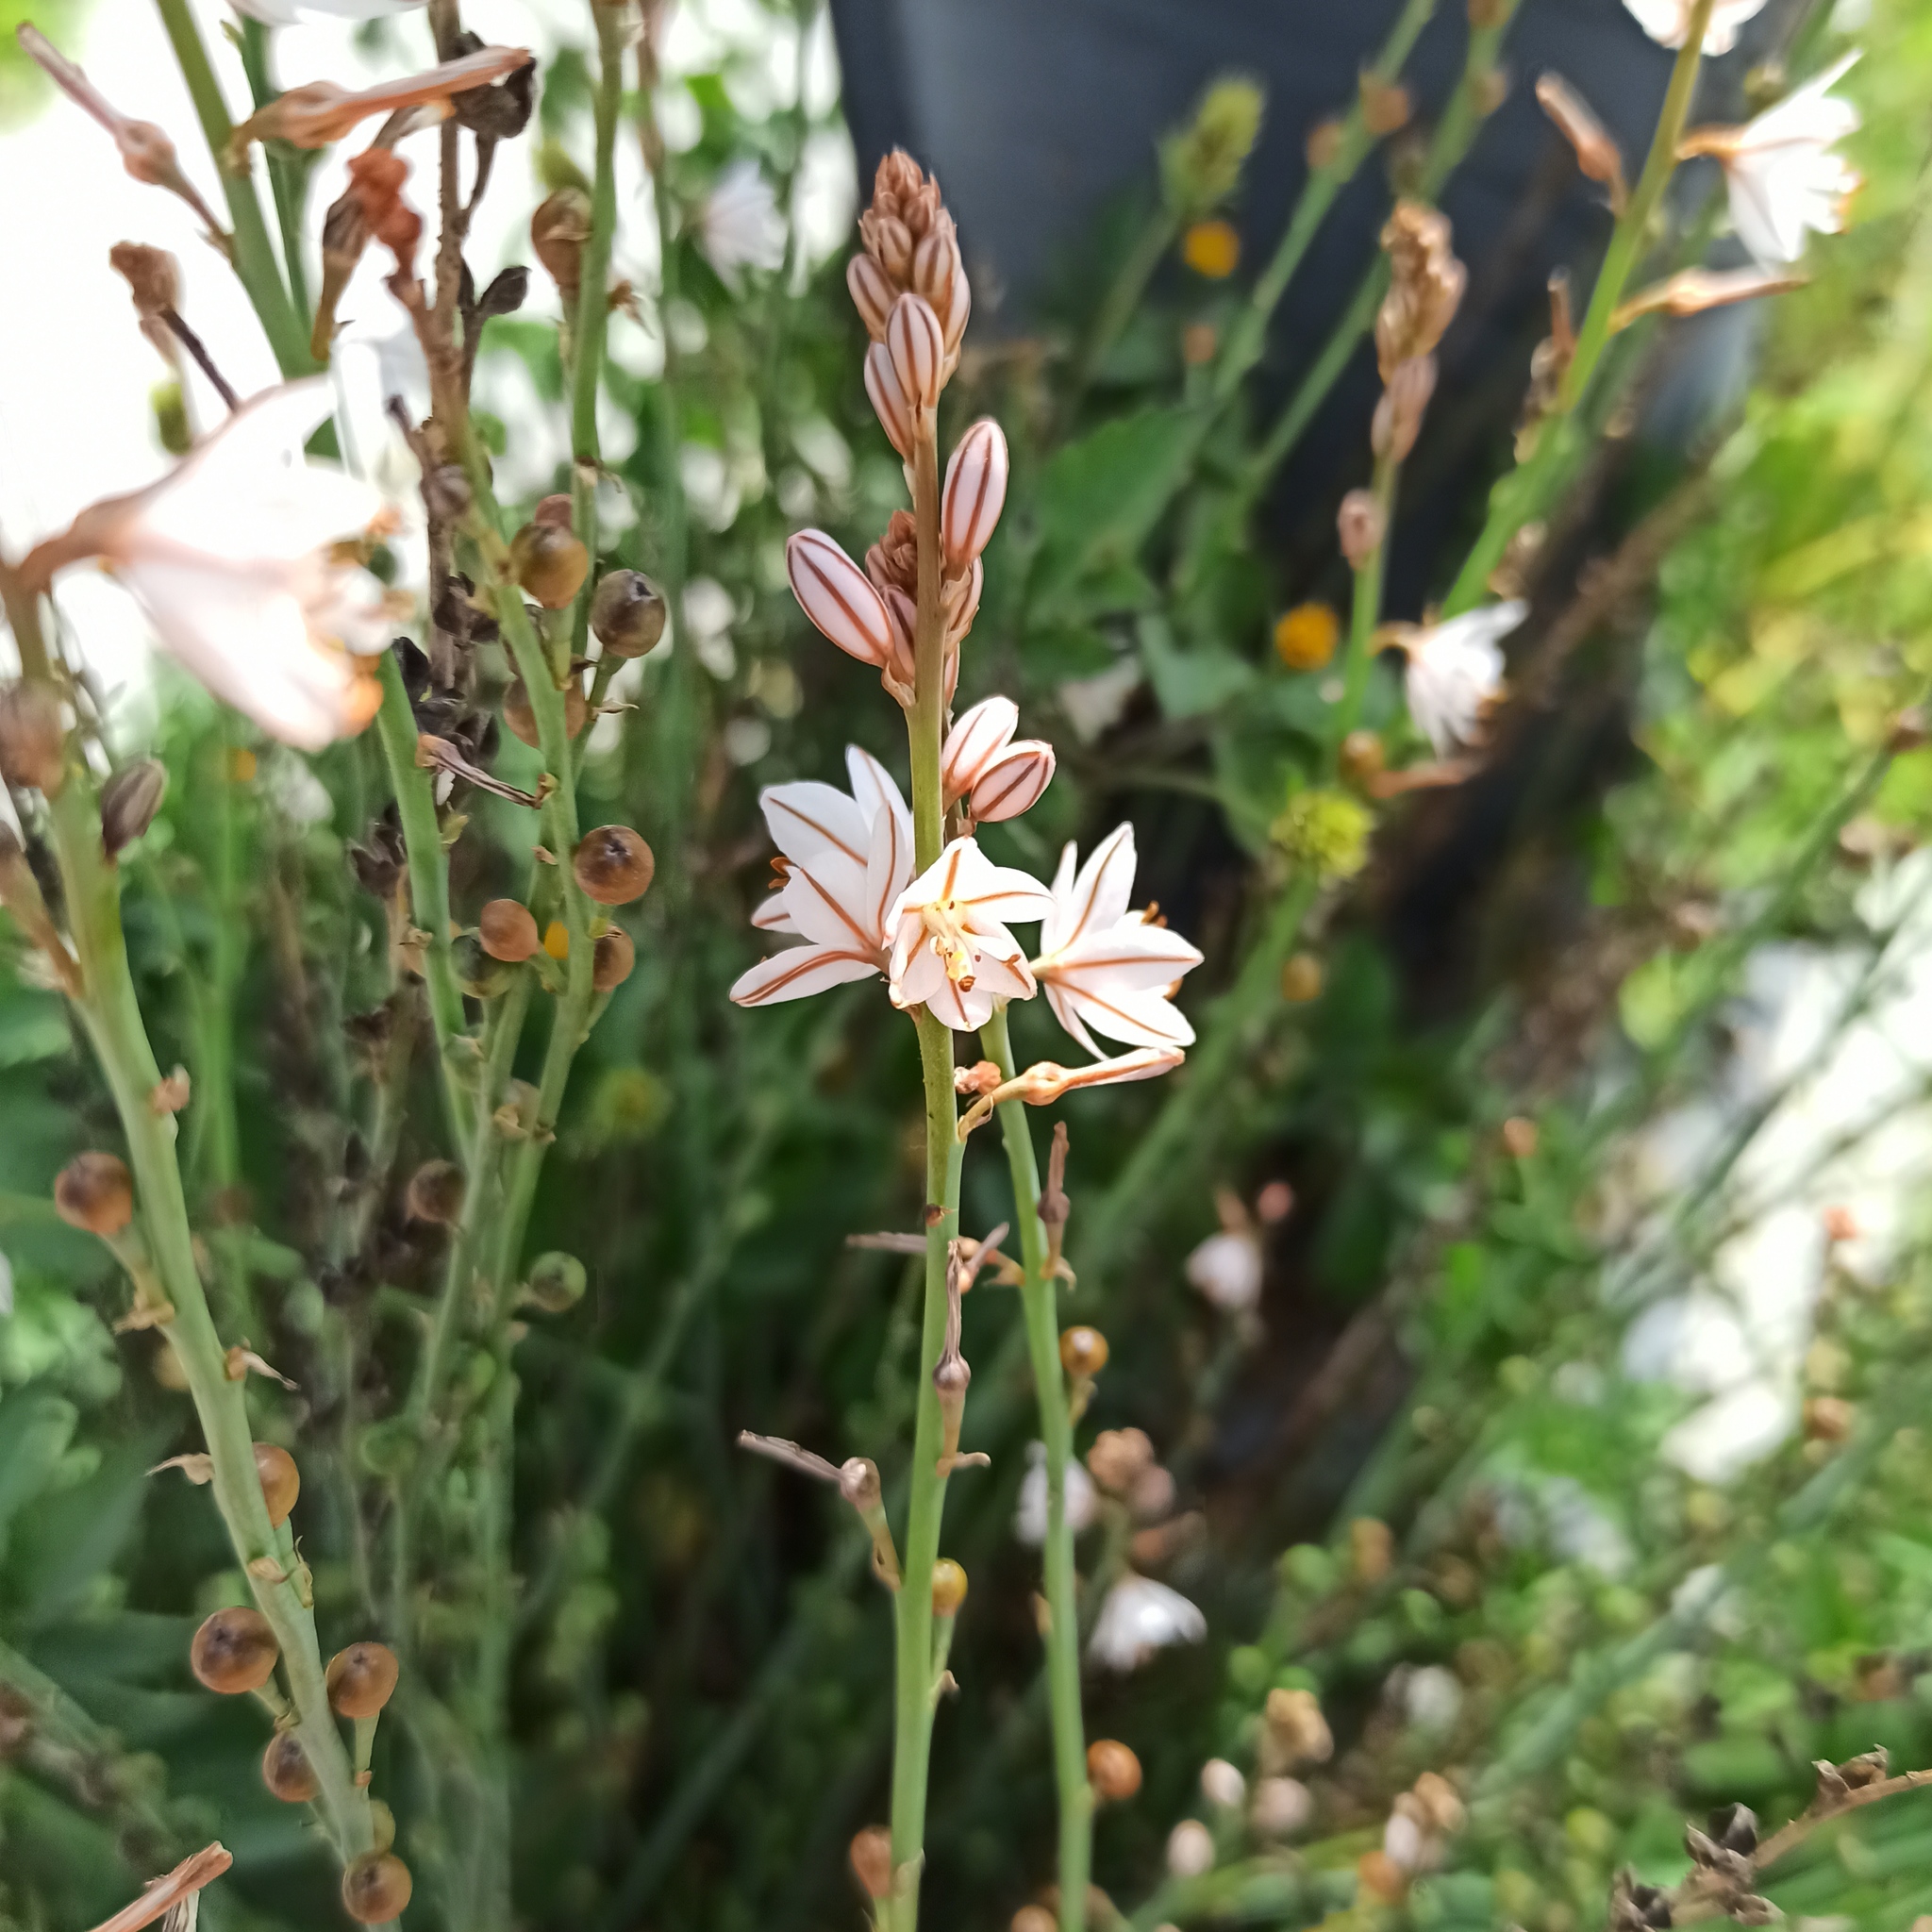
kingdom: Plantae
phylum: Tracheophyta
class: Liliopsida
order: Asparagales
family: Asphodelaceae
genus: Asphodelus
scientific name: Asphodelus fistulosus
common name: Onionweed
